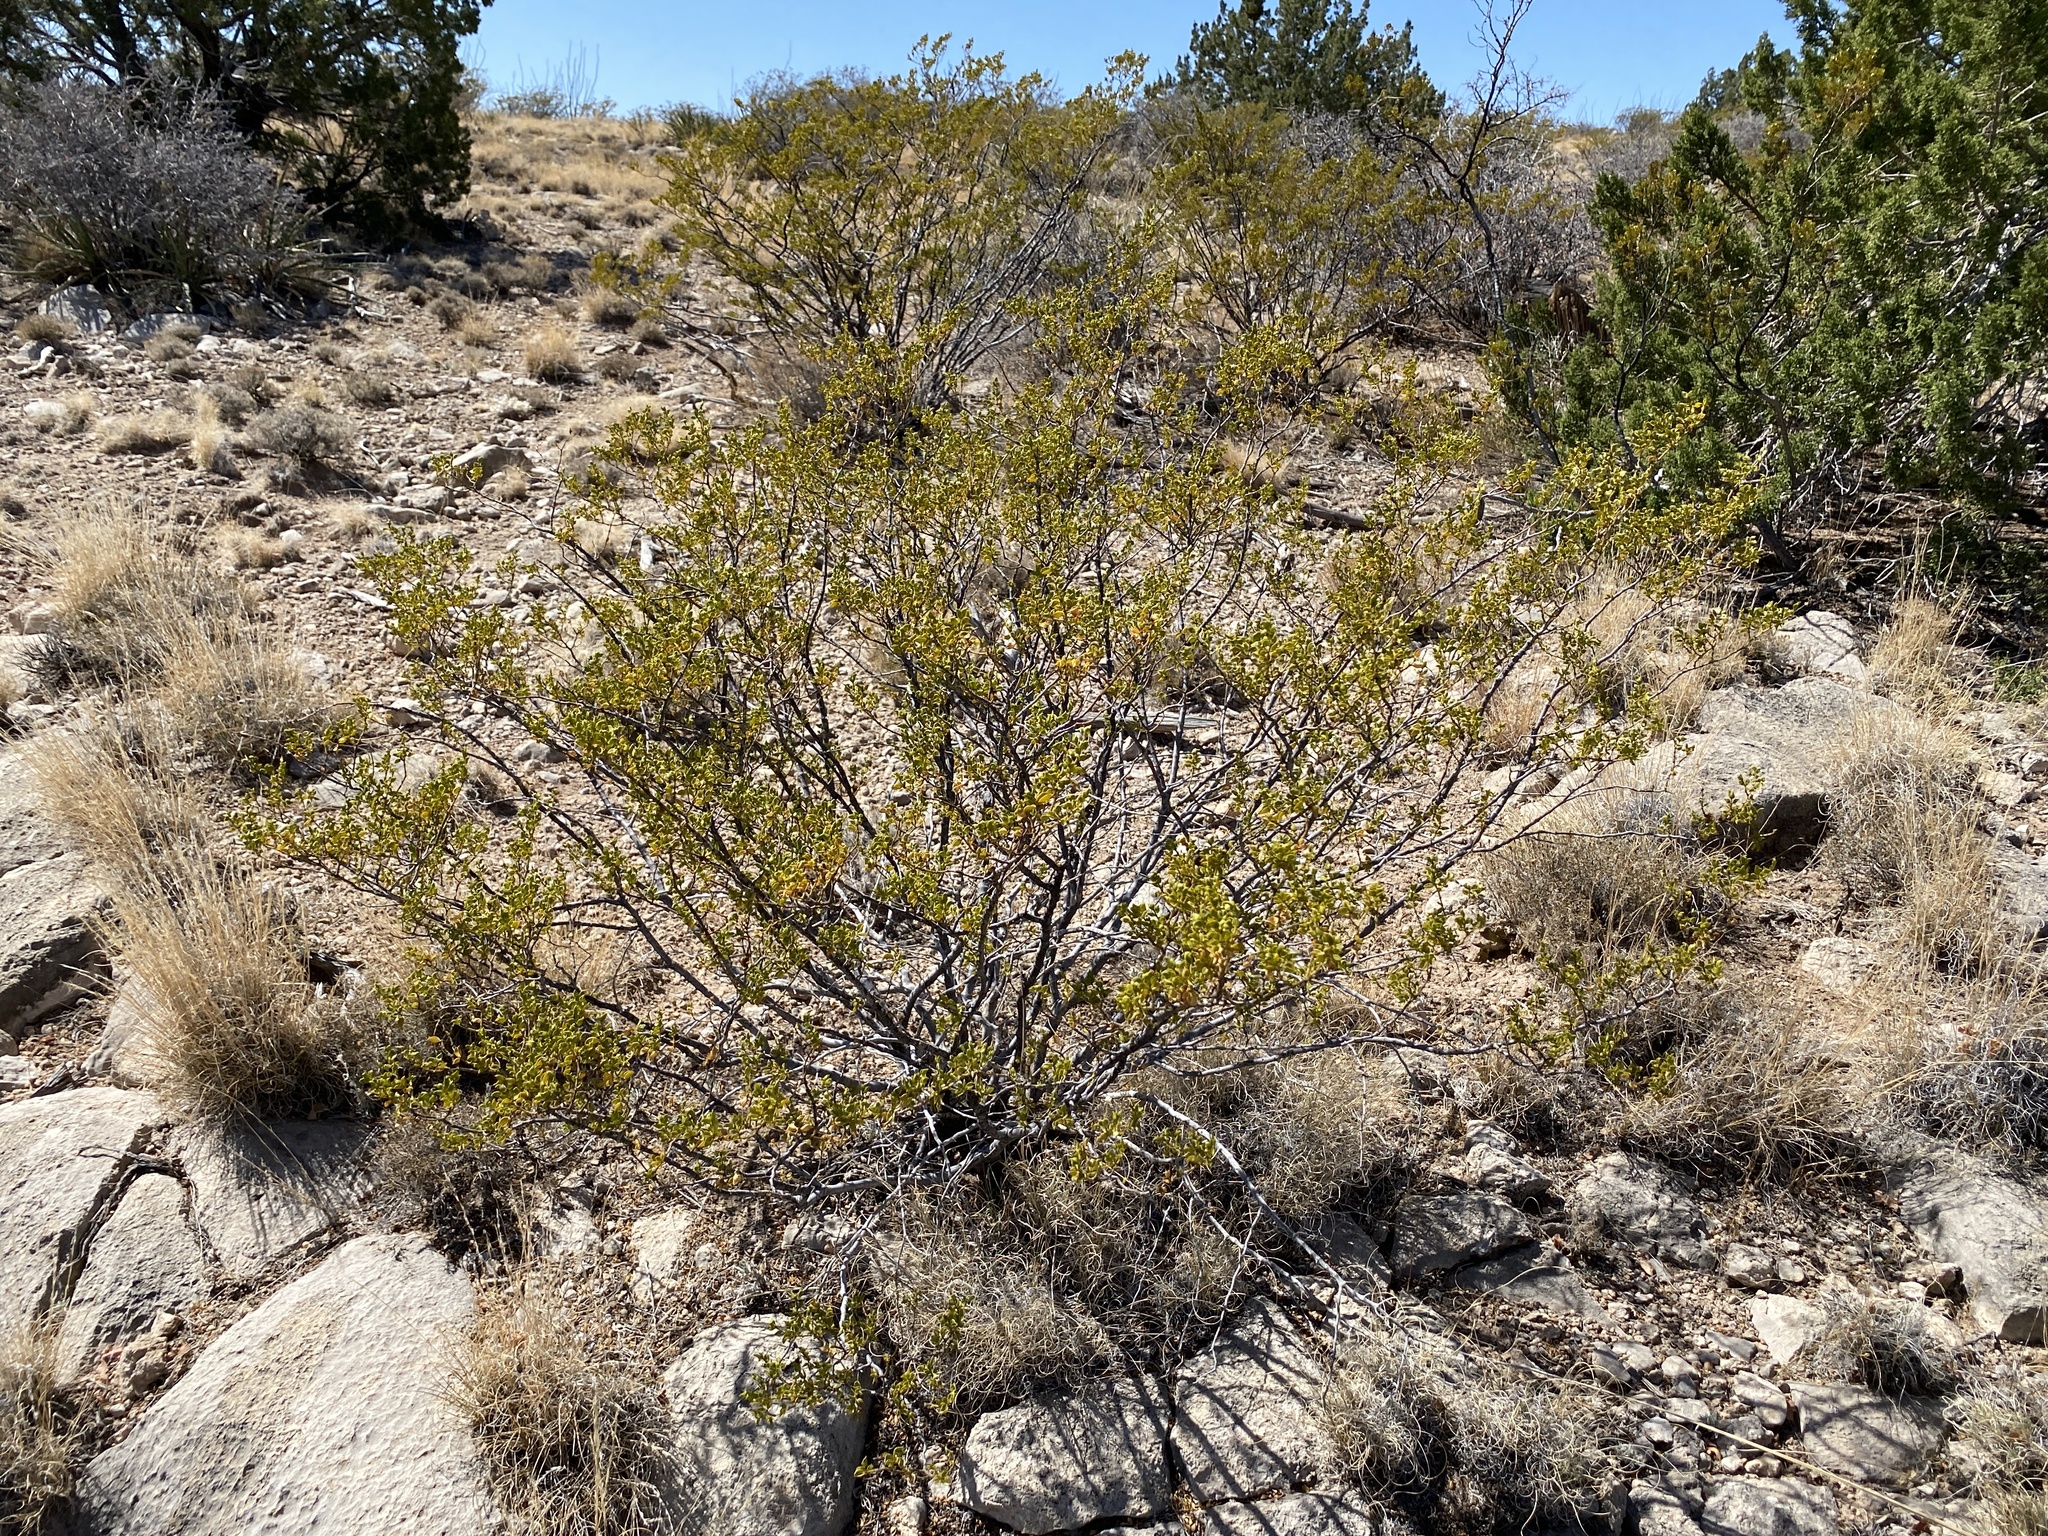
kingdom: Plantae
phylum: Tracheophyta
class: Magnoliopsida
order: Zygophyllales
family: Zygophyllaceae
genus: Larrea
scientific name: Larrea tridentata
